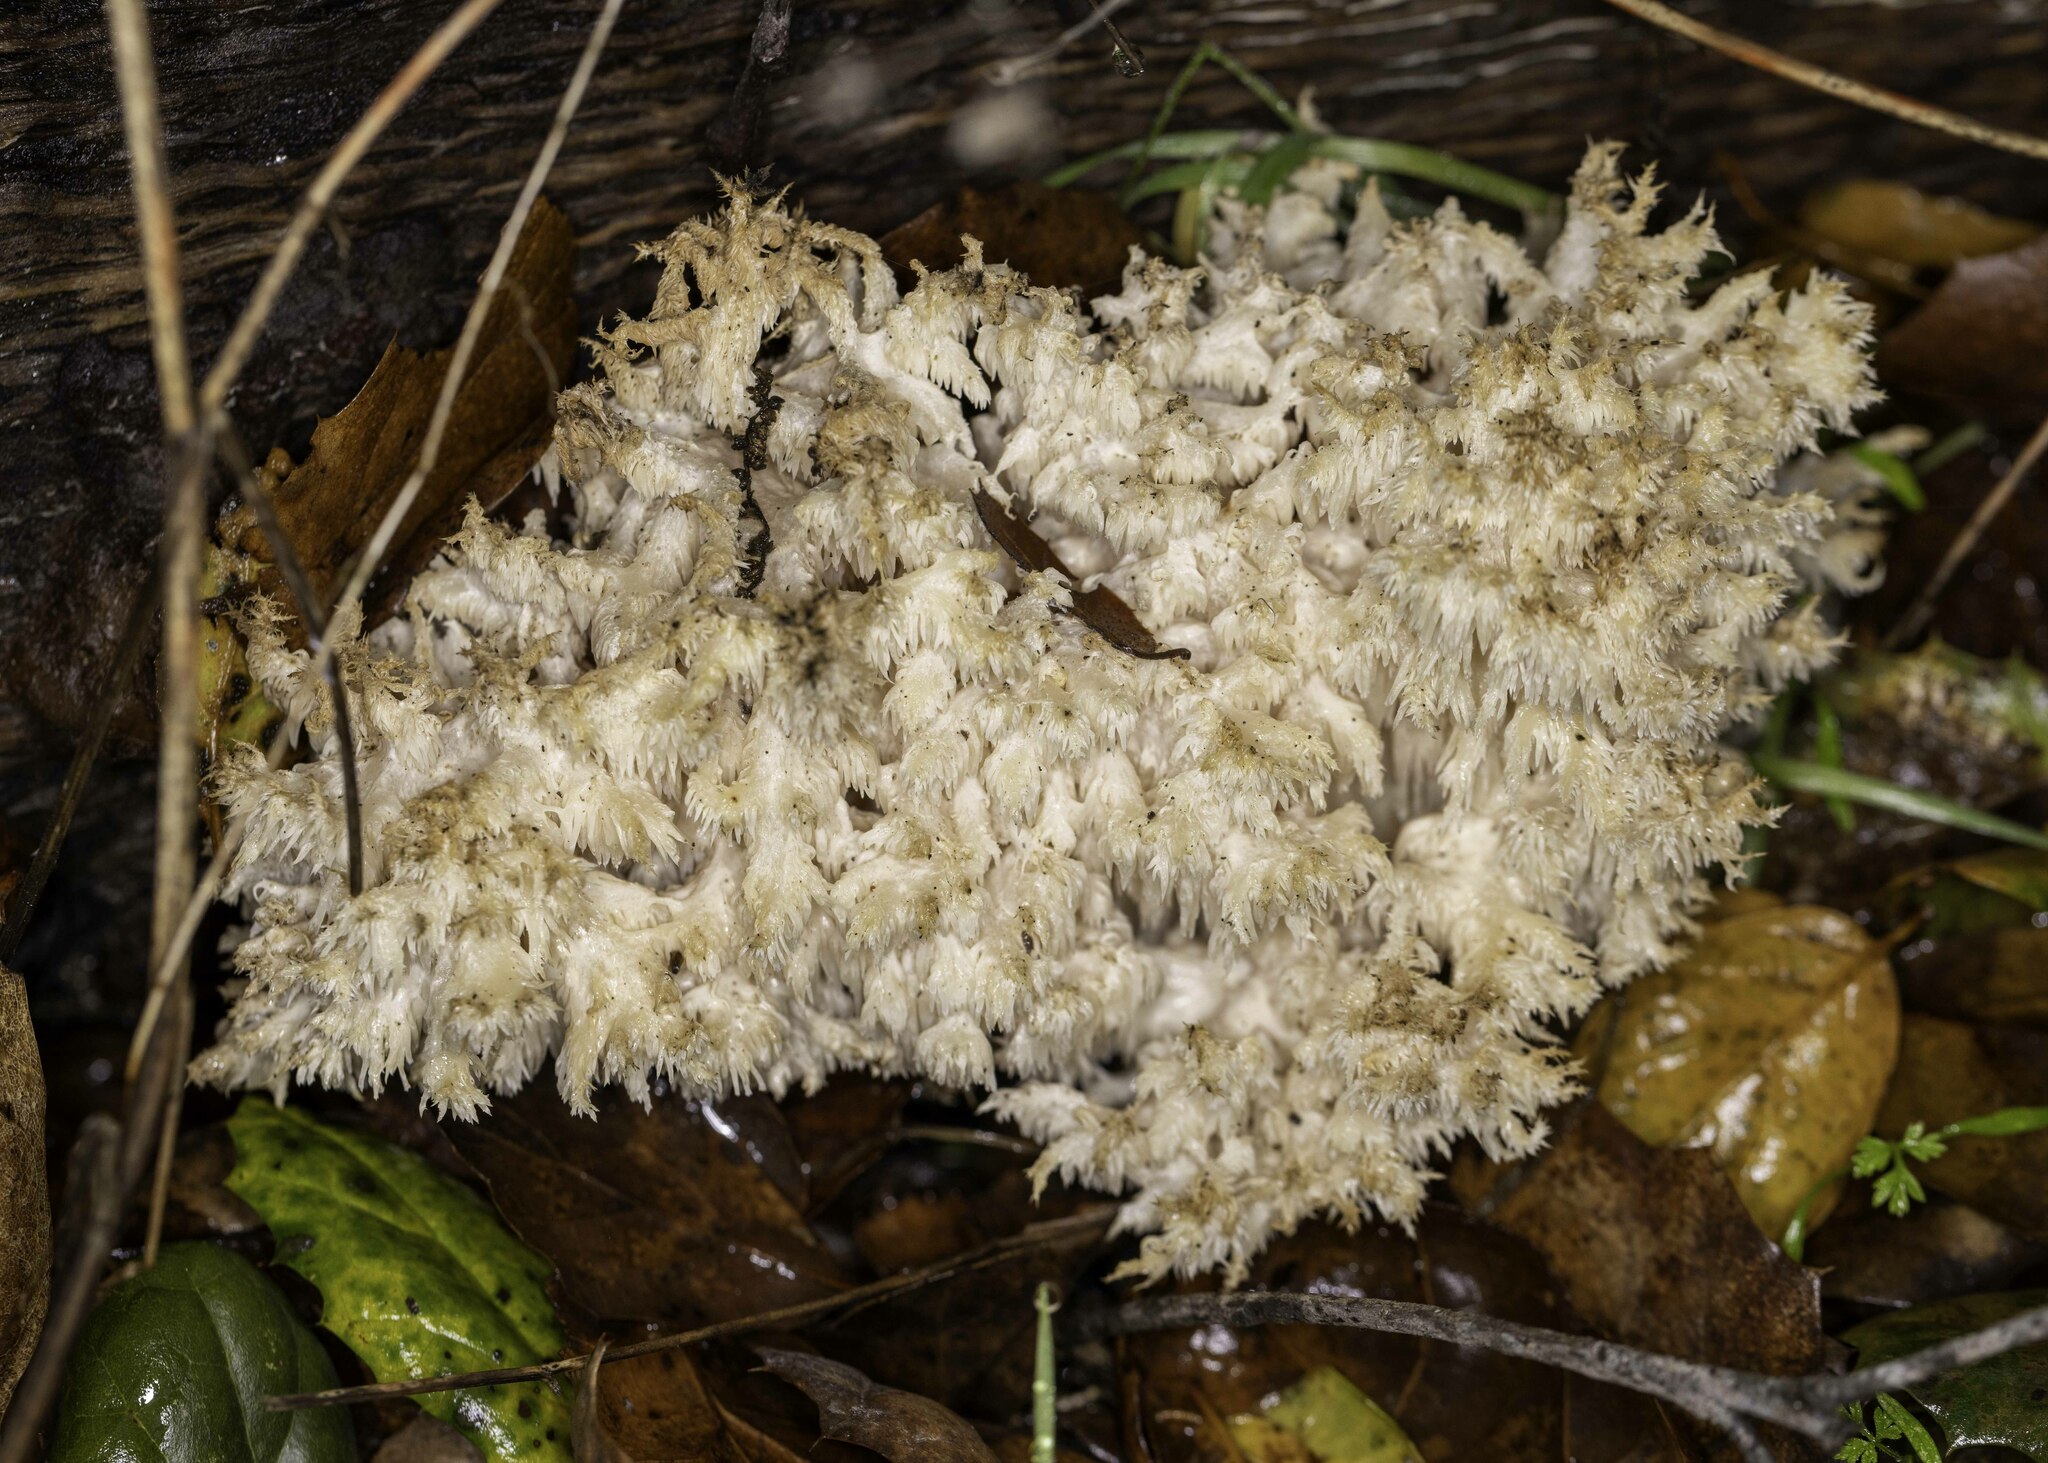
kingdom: Fungi
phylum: Basidiomycota
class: Agaricomycetes
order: Russulales
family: Hericiaceae
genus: Hericium
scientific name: Hericium coralloides
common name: Coral tooth
